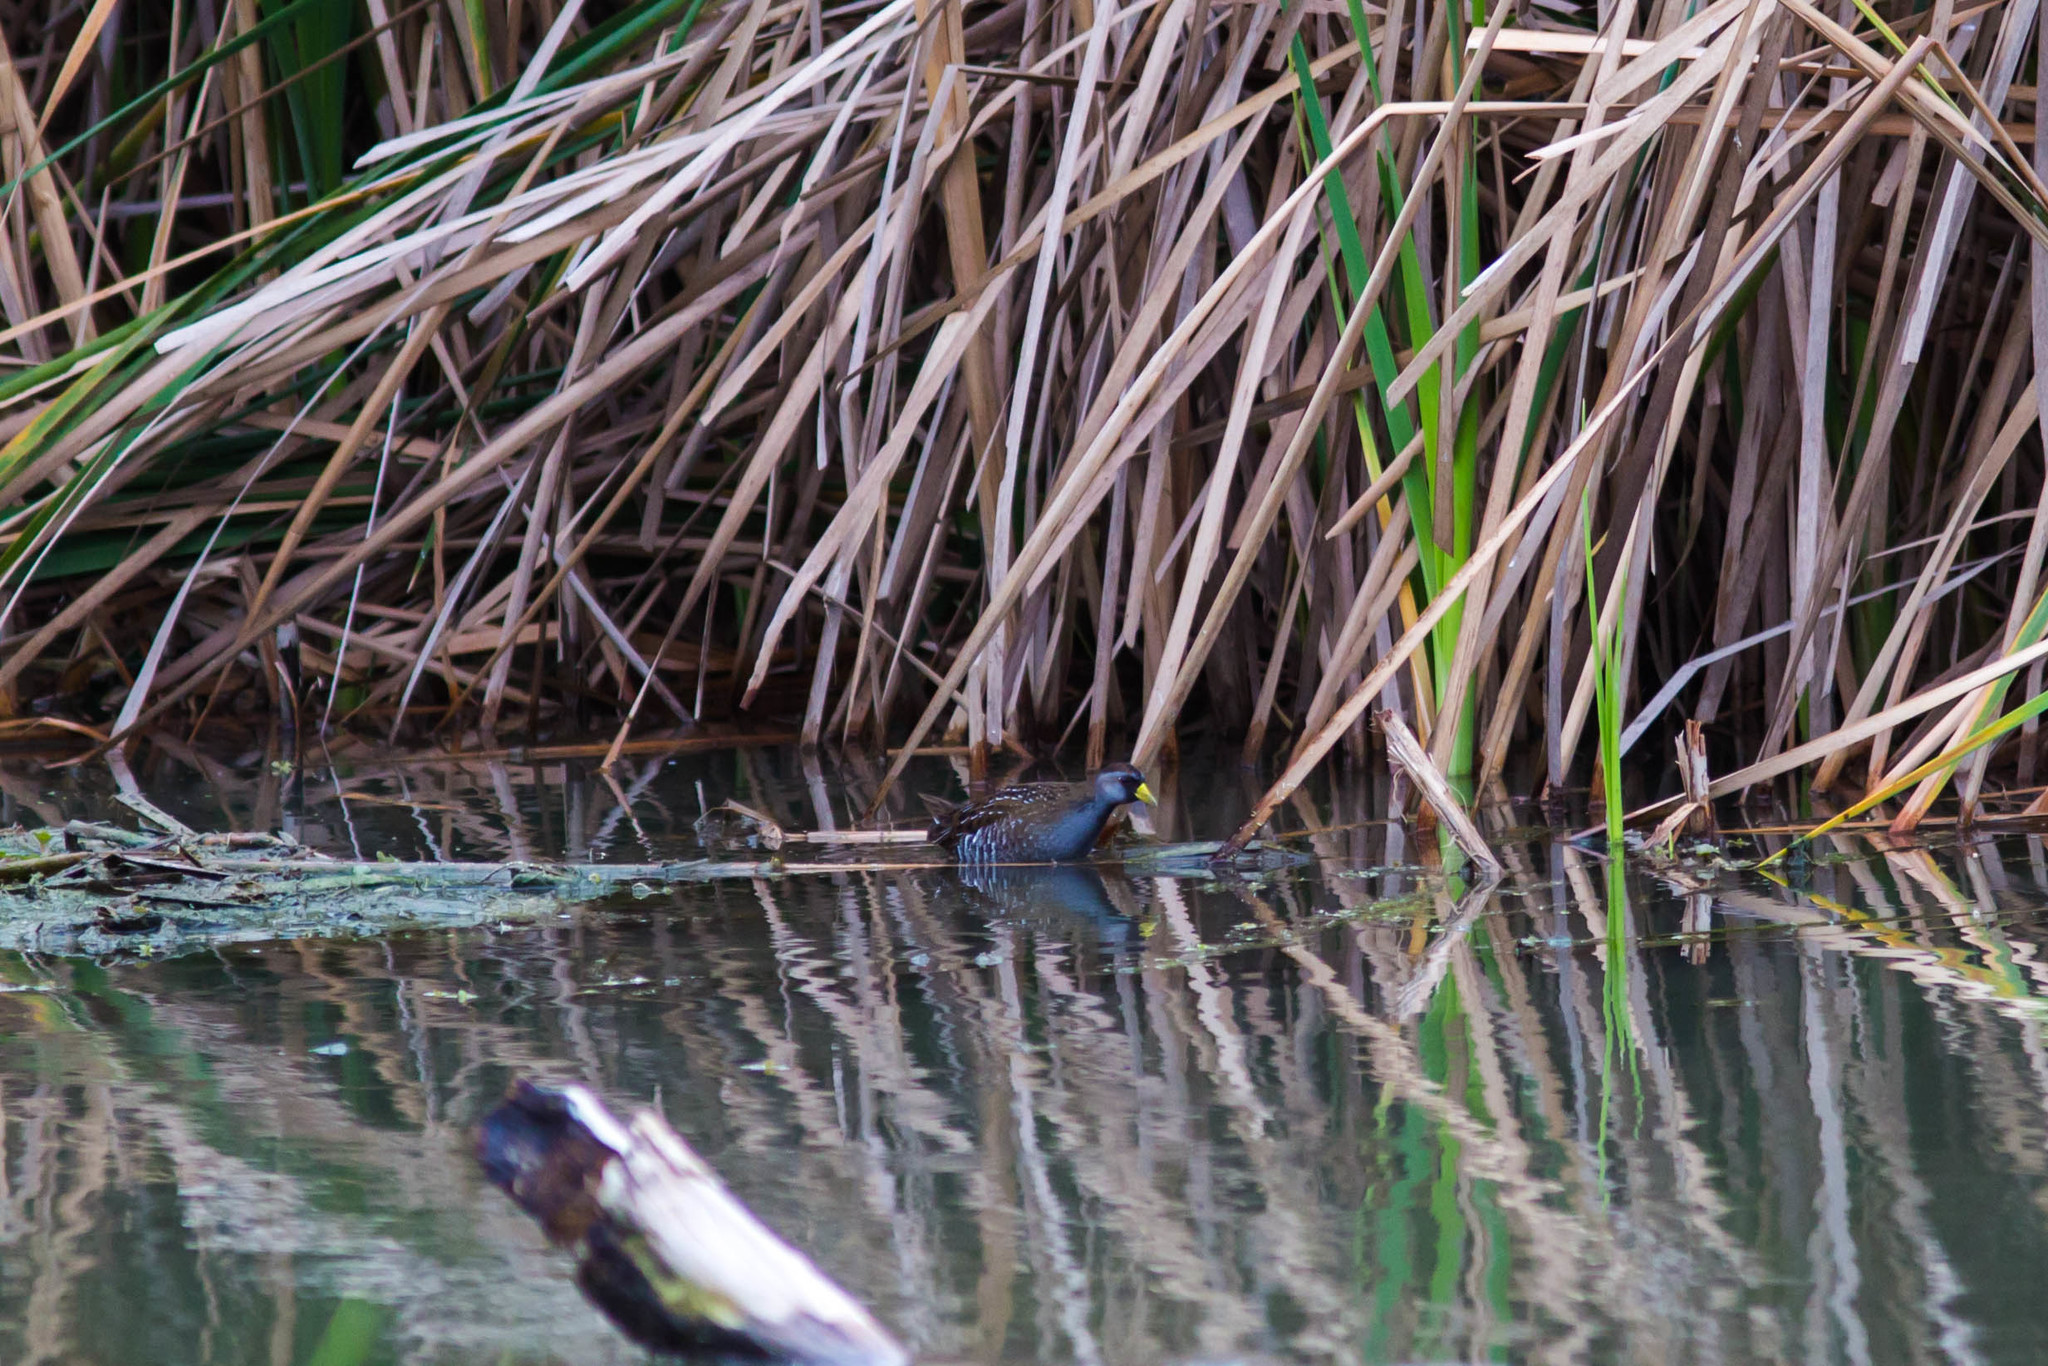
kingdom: Animalia
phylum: Chordata
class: Aves
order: Gruiformes
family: Rallidae
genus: Porzana
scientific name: Porzana carolina
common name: Sora
